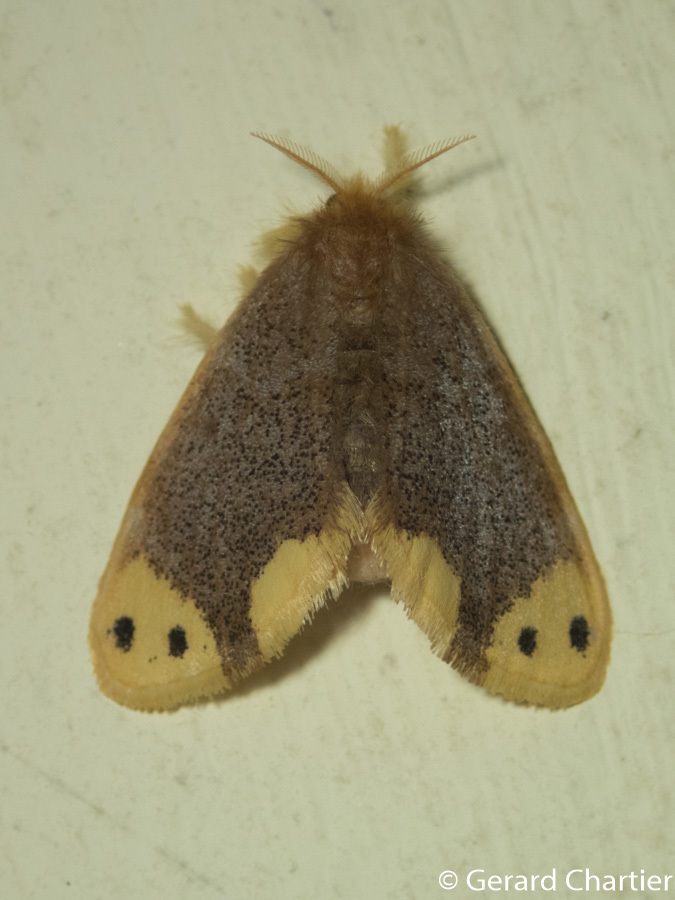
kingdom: Animalia
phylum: Arthropoda
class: Insecta
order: Lepidoptera
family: Erebidae
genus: Arna
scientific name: Arna bipunctapex
